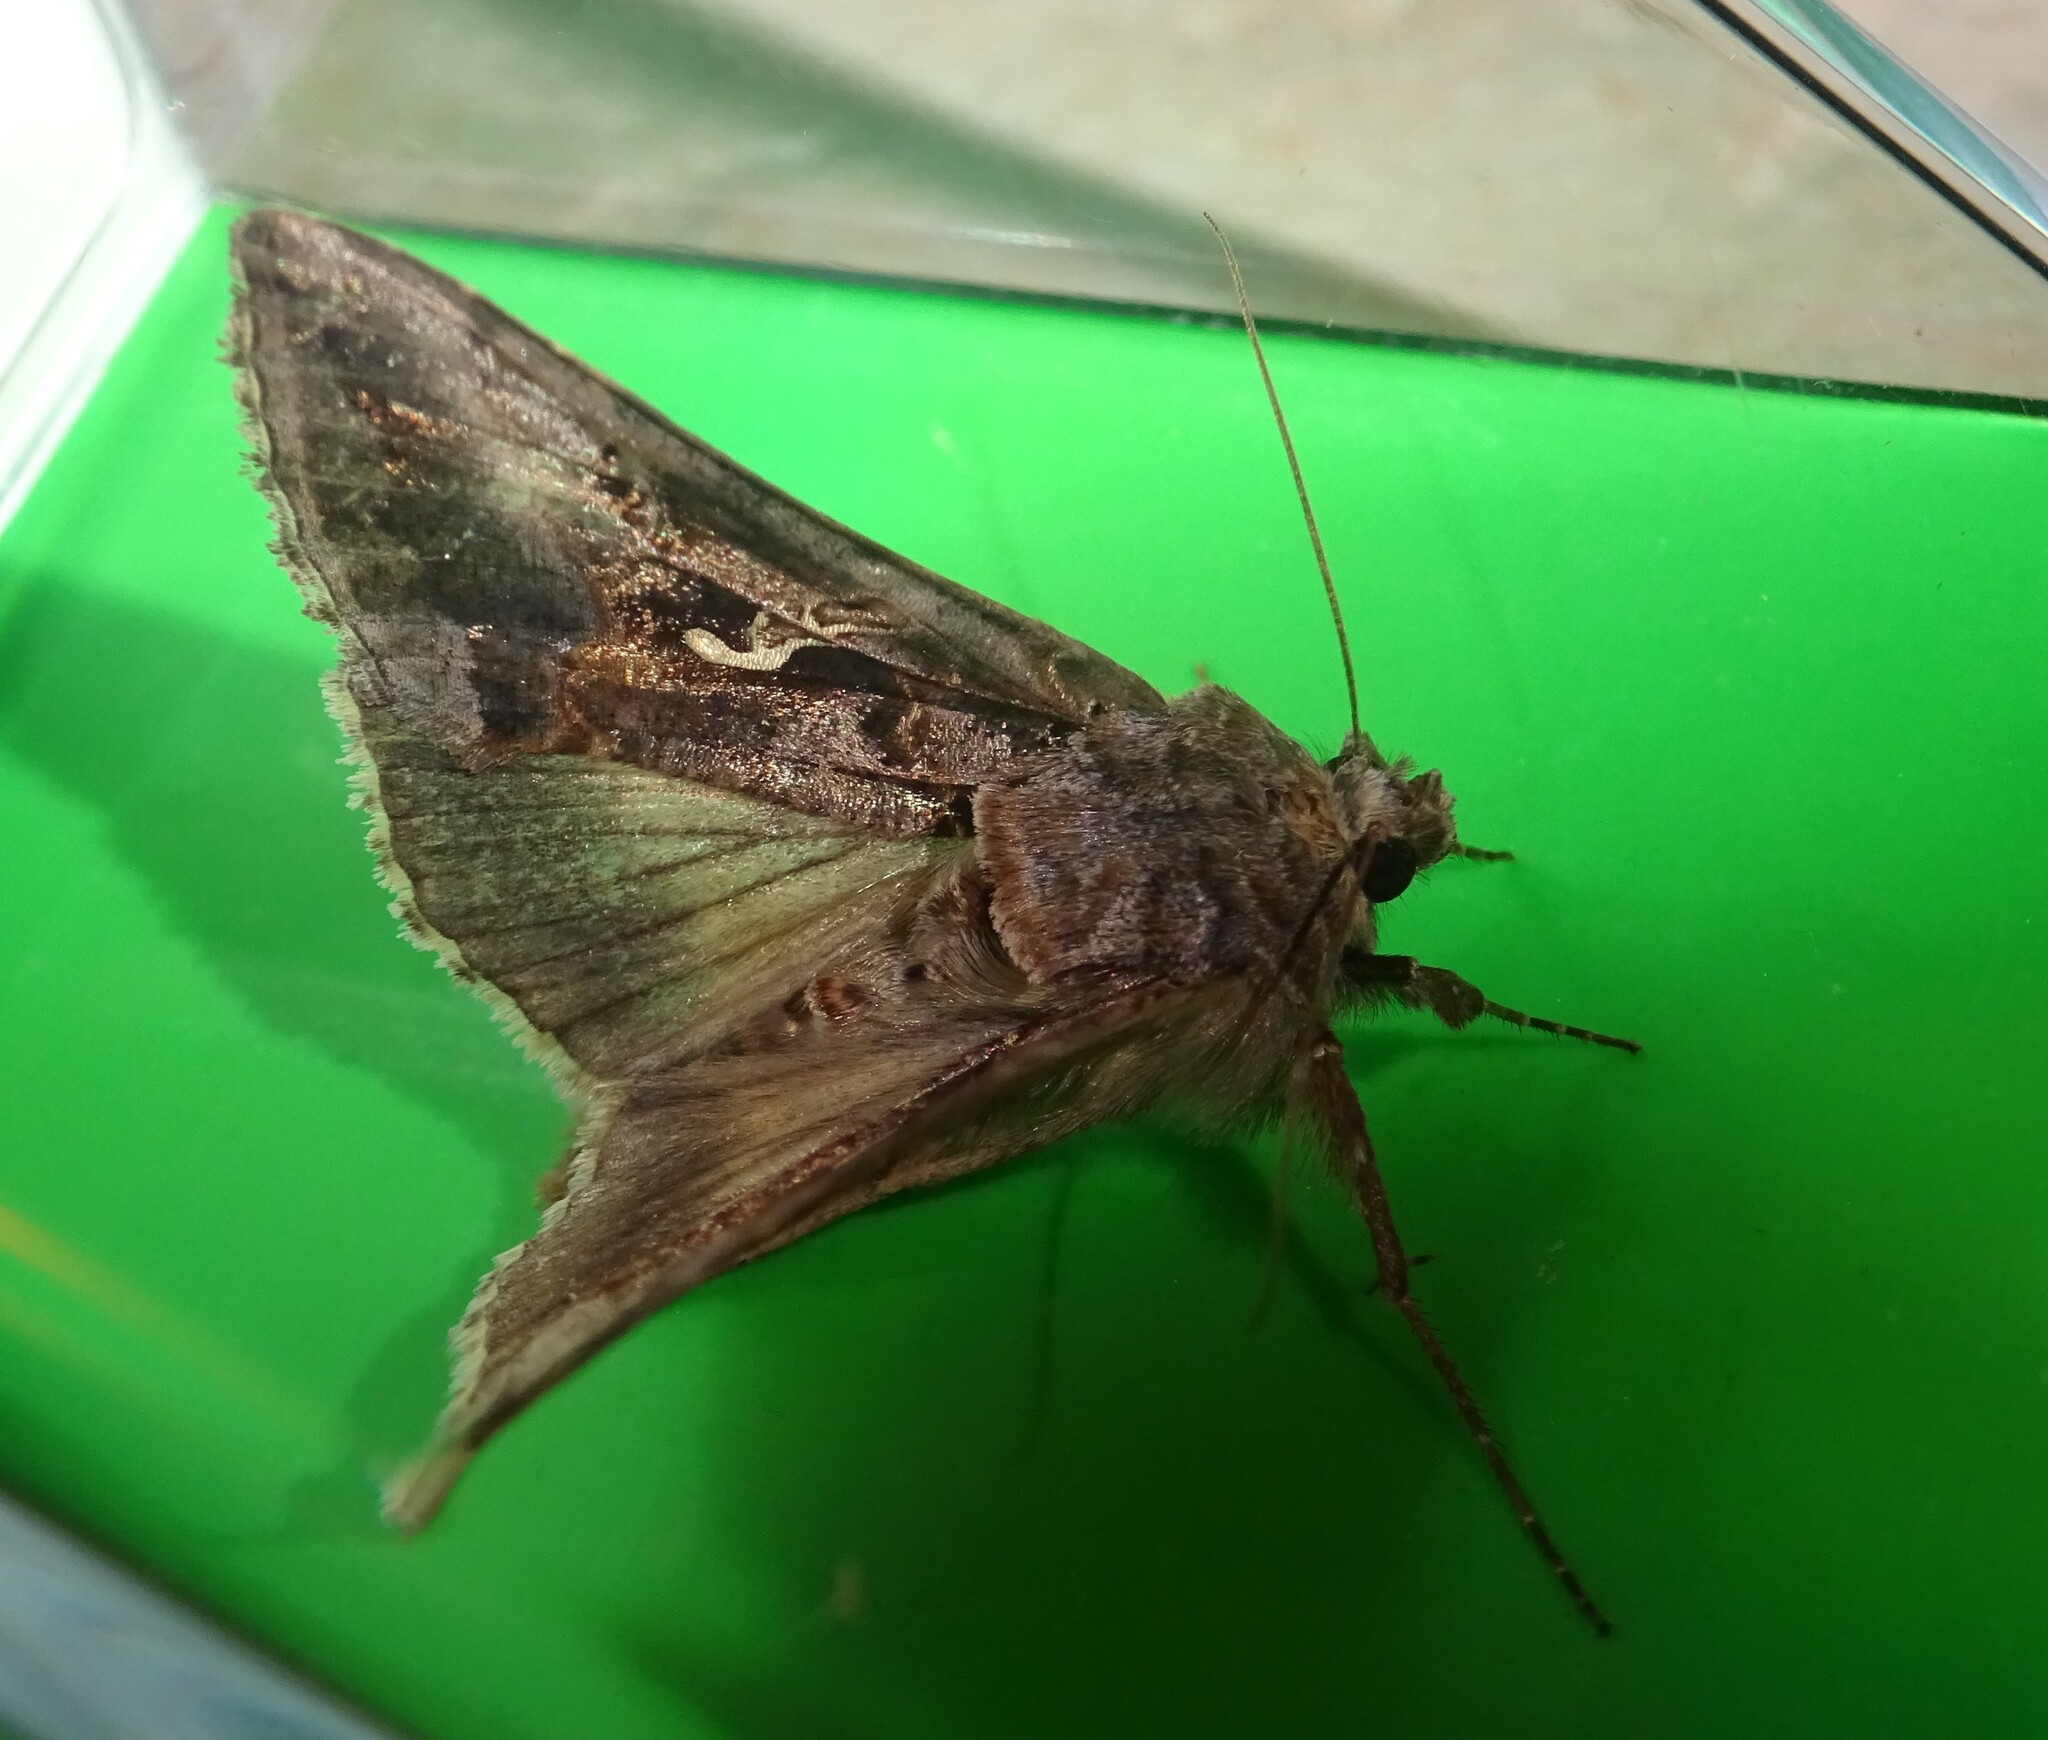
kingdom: Animalia
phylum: Arthropoda
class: Insecta
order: Lepidoptera
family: Noctuidae
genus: Autographa
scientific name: Autographa gamma
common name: Silver y
